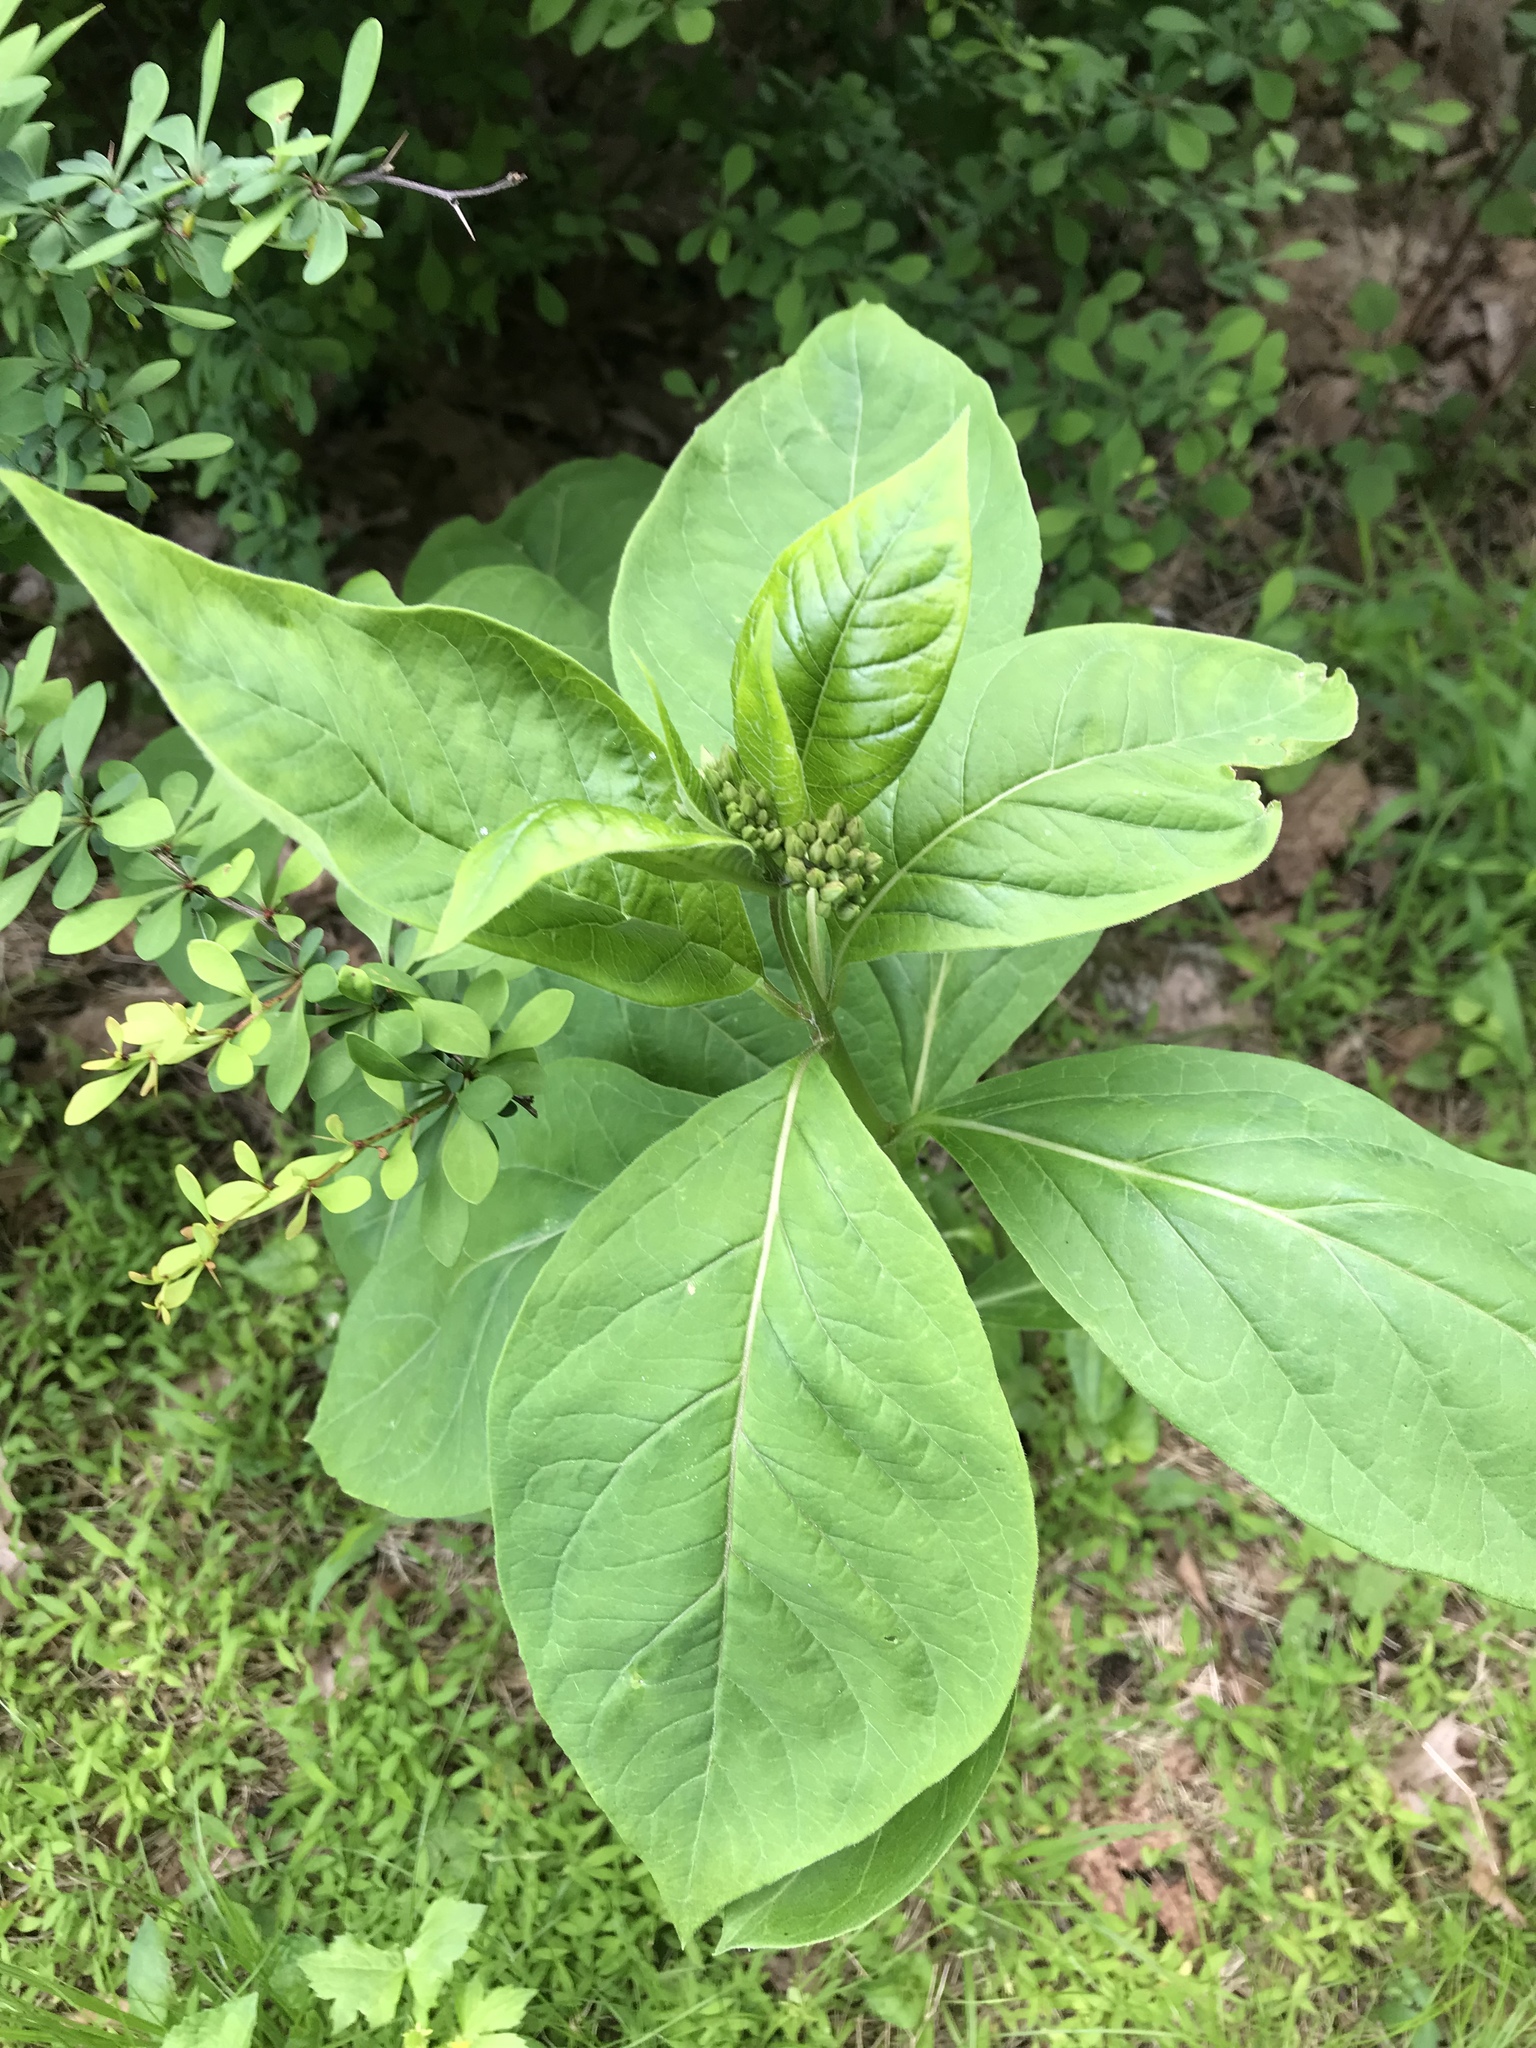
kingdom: Plantae
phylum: Tracheophyta
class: Magnoliopsida
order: Gentianales
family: Apocynaceae
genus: Asclepias
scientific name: Asclepias exaltata
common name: Poke milkweed
